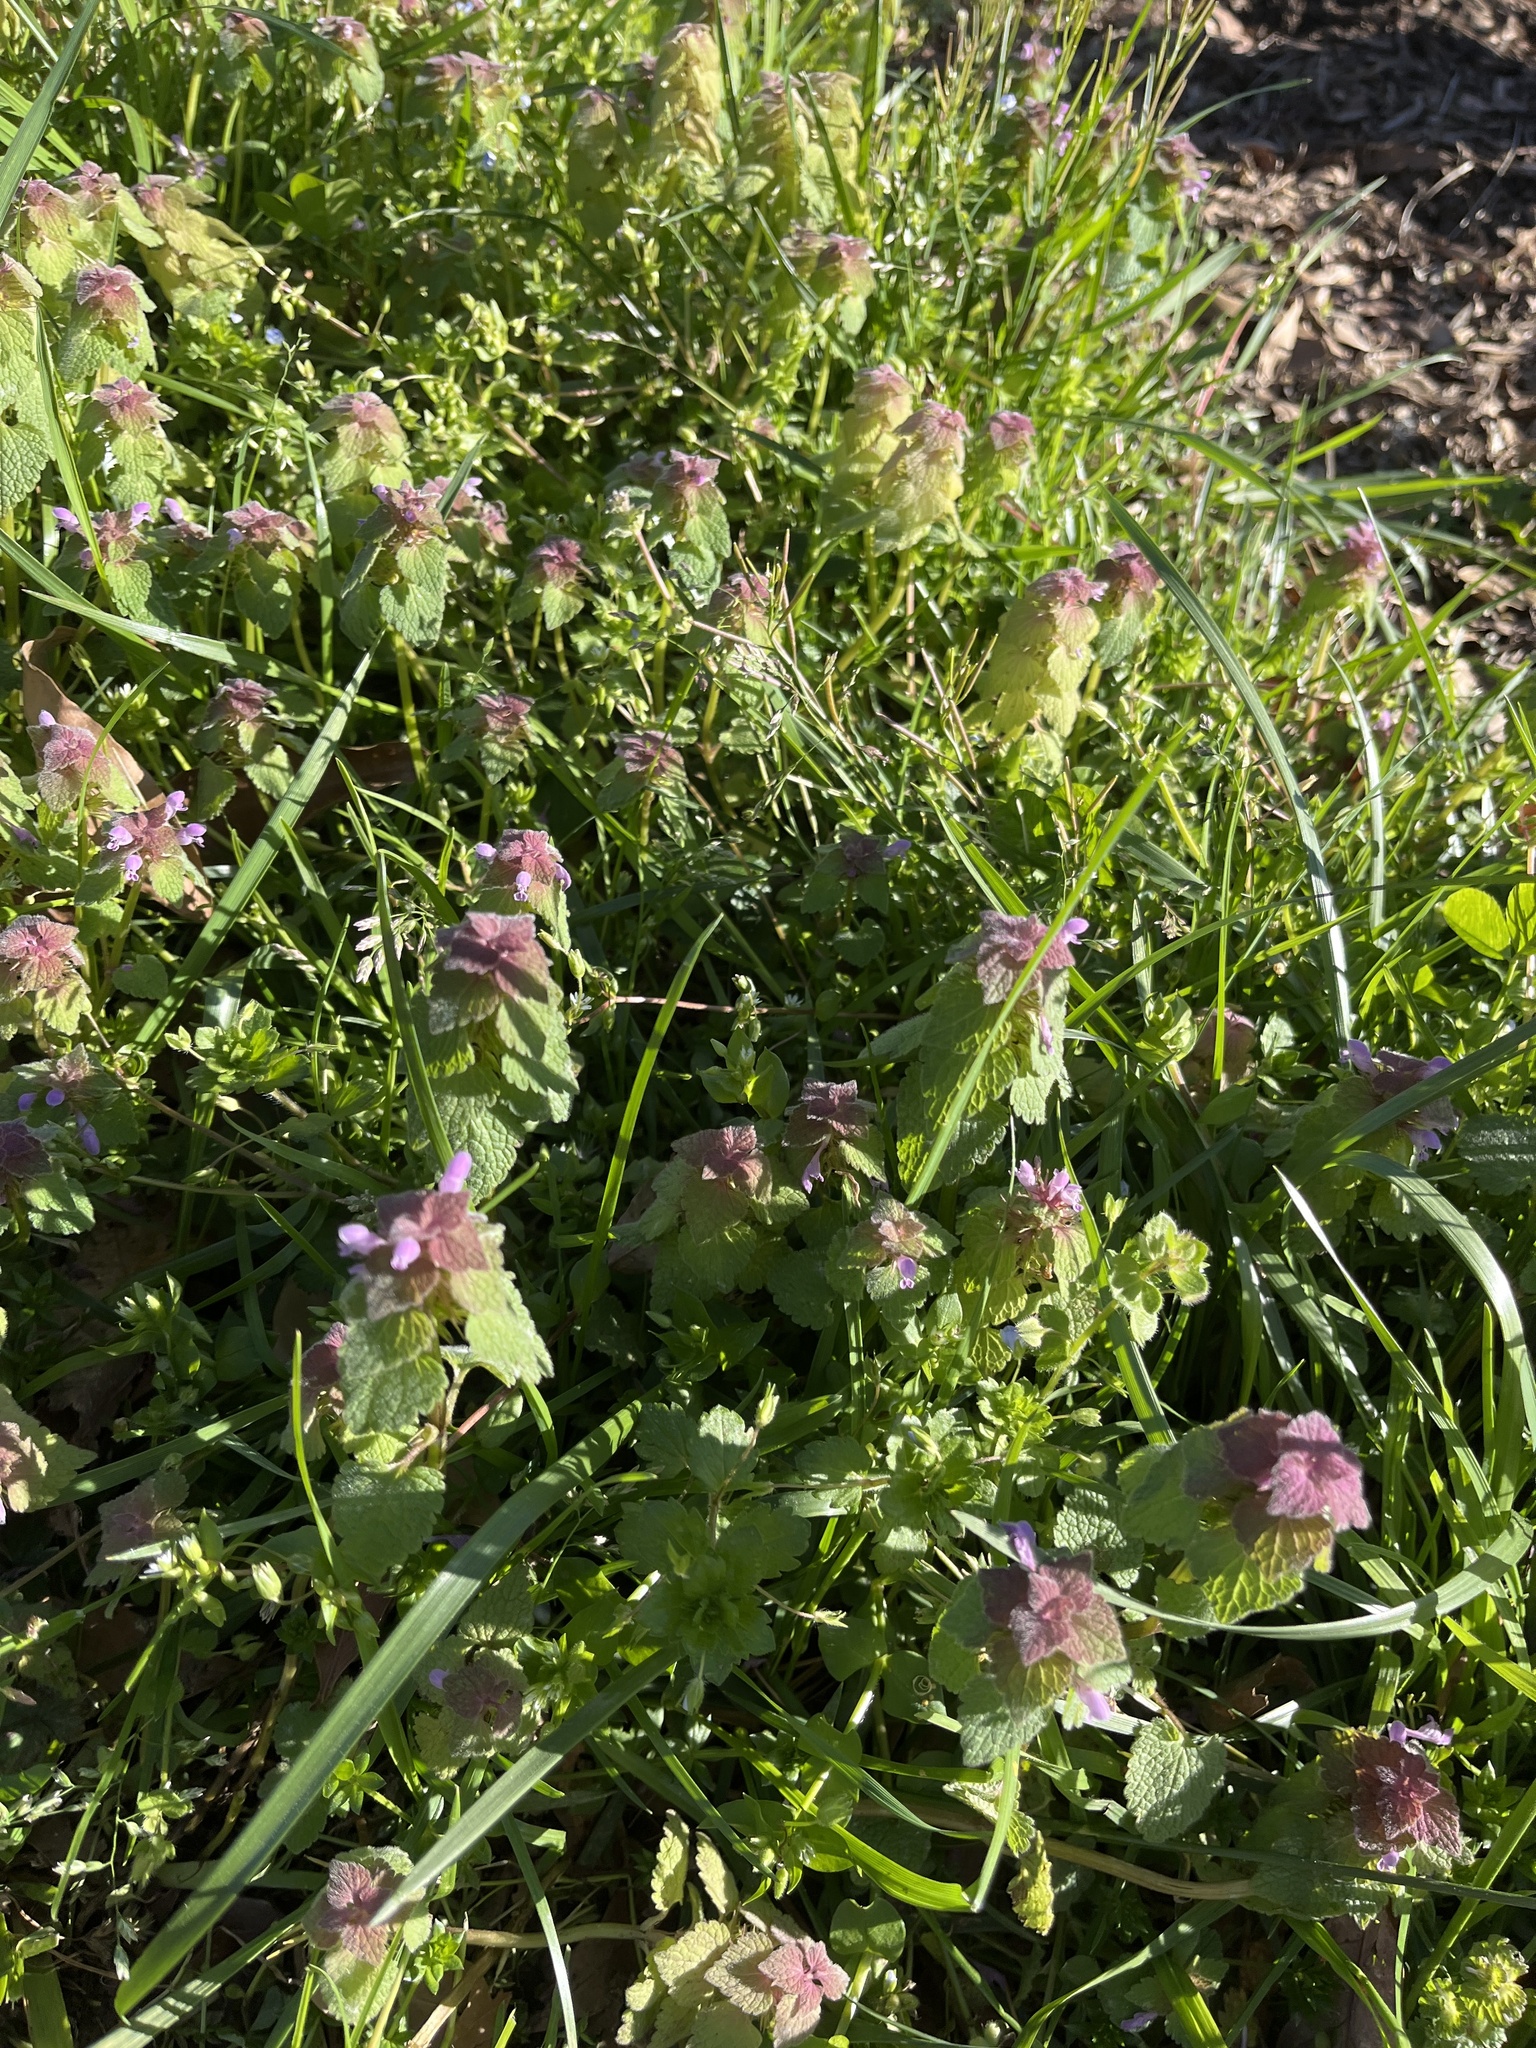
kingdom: Plantae
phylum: Tracheophyta
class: Magnoliopsida
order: Lamiales
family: Lamiaceae
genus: Lamium
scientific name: Lamium purpureum
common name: Red dead-nettle
